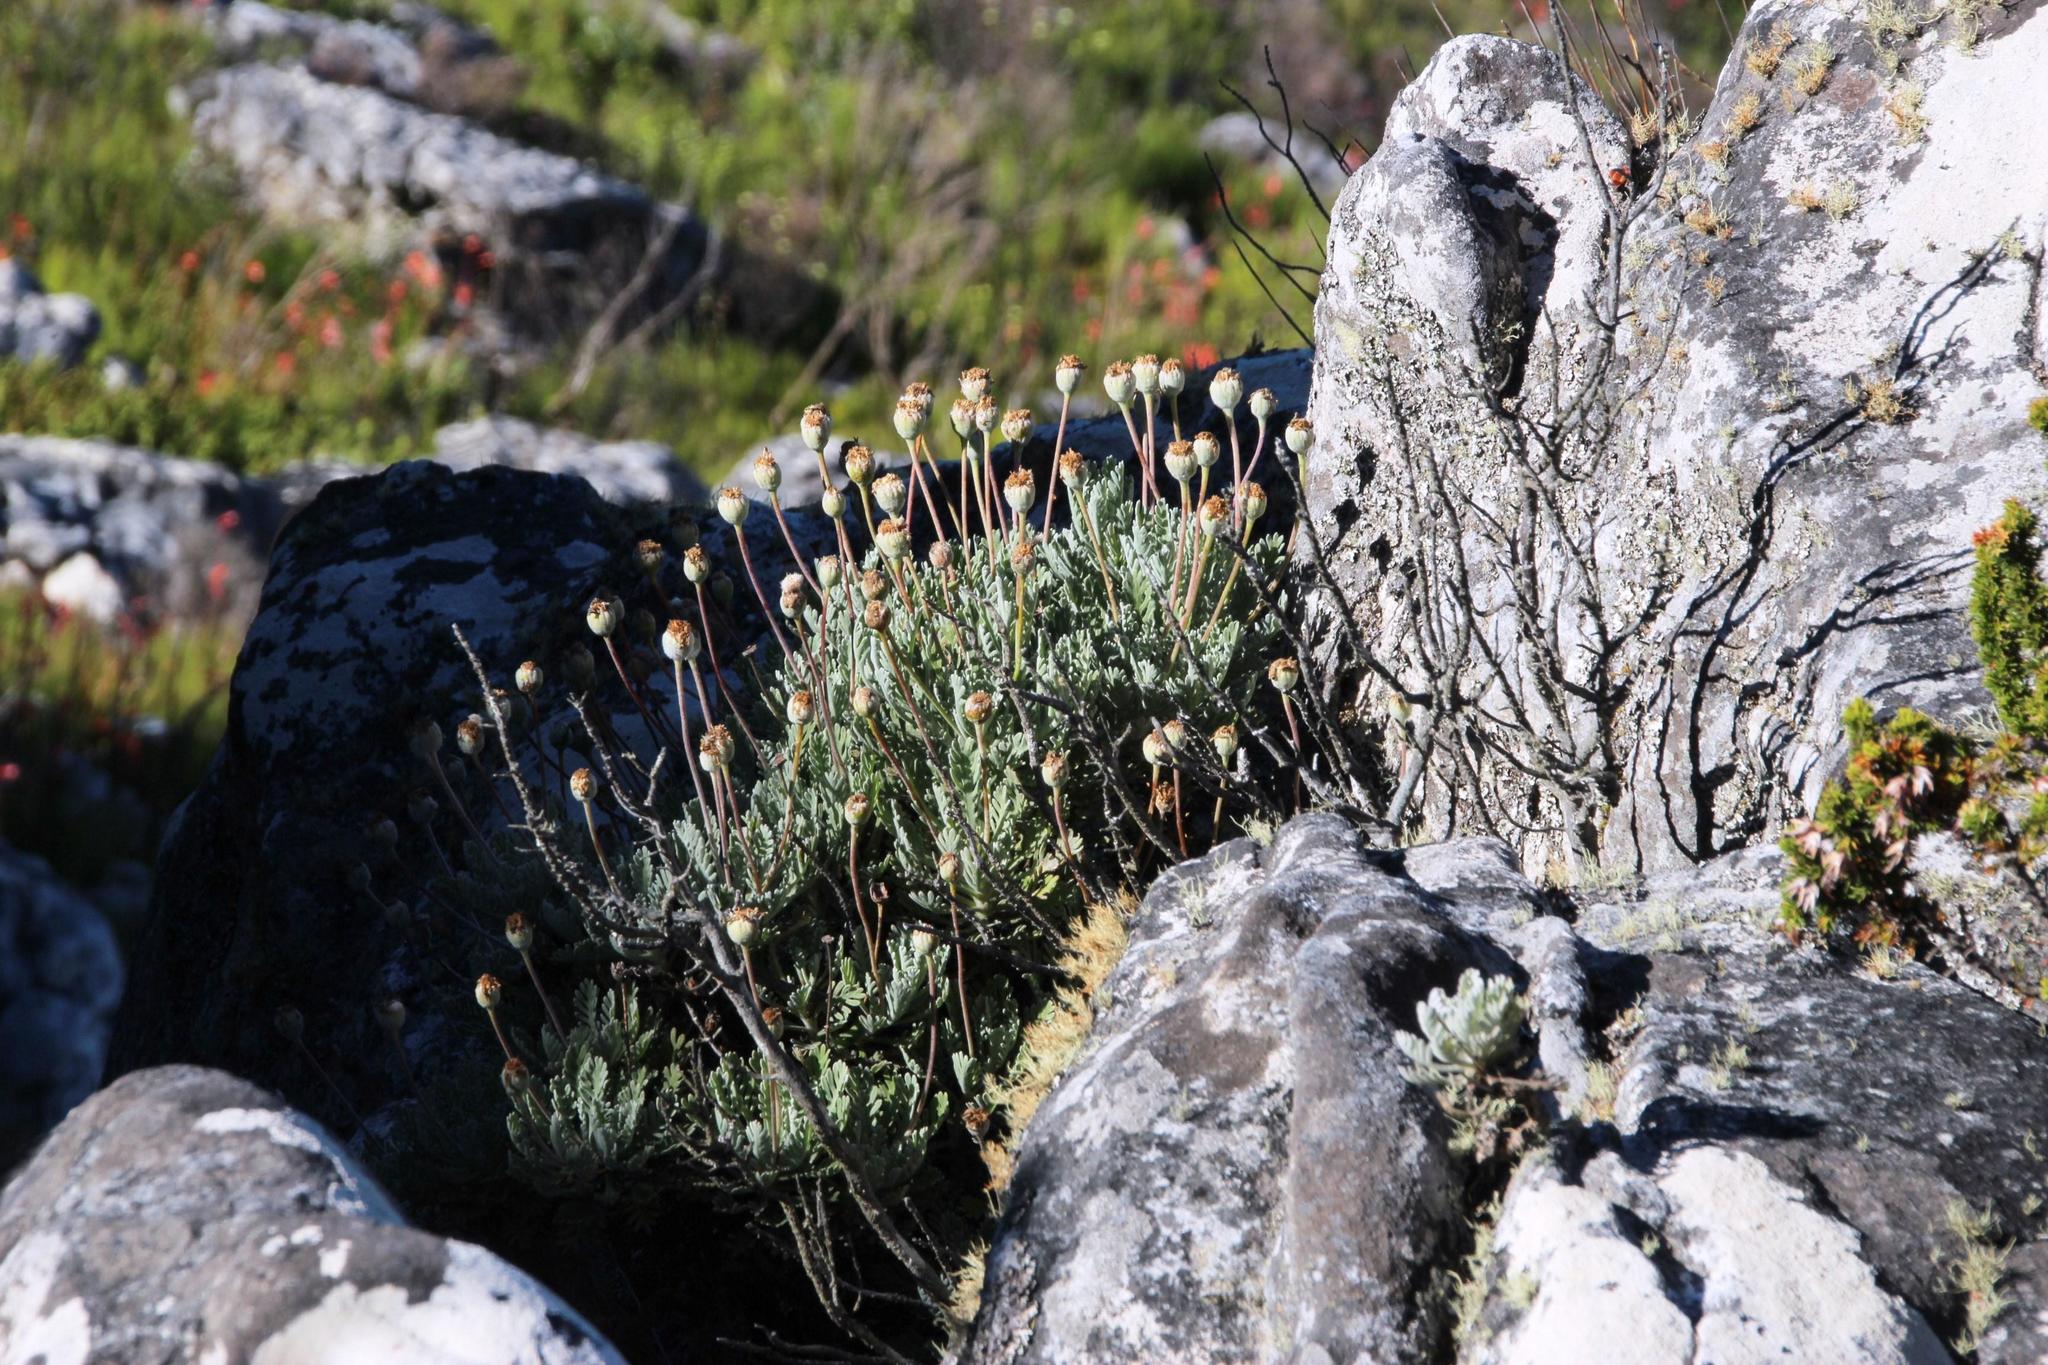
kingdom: Plantae
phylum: Tracheophyta
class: Magnoliopsida
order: Asterales
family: Asteraceae
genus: Euryops
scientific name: Euryops pectinatus
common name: Gray-leaf euryops
